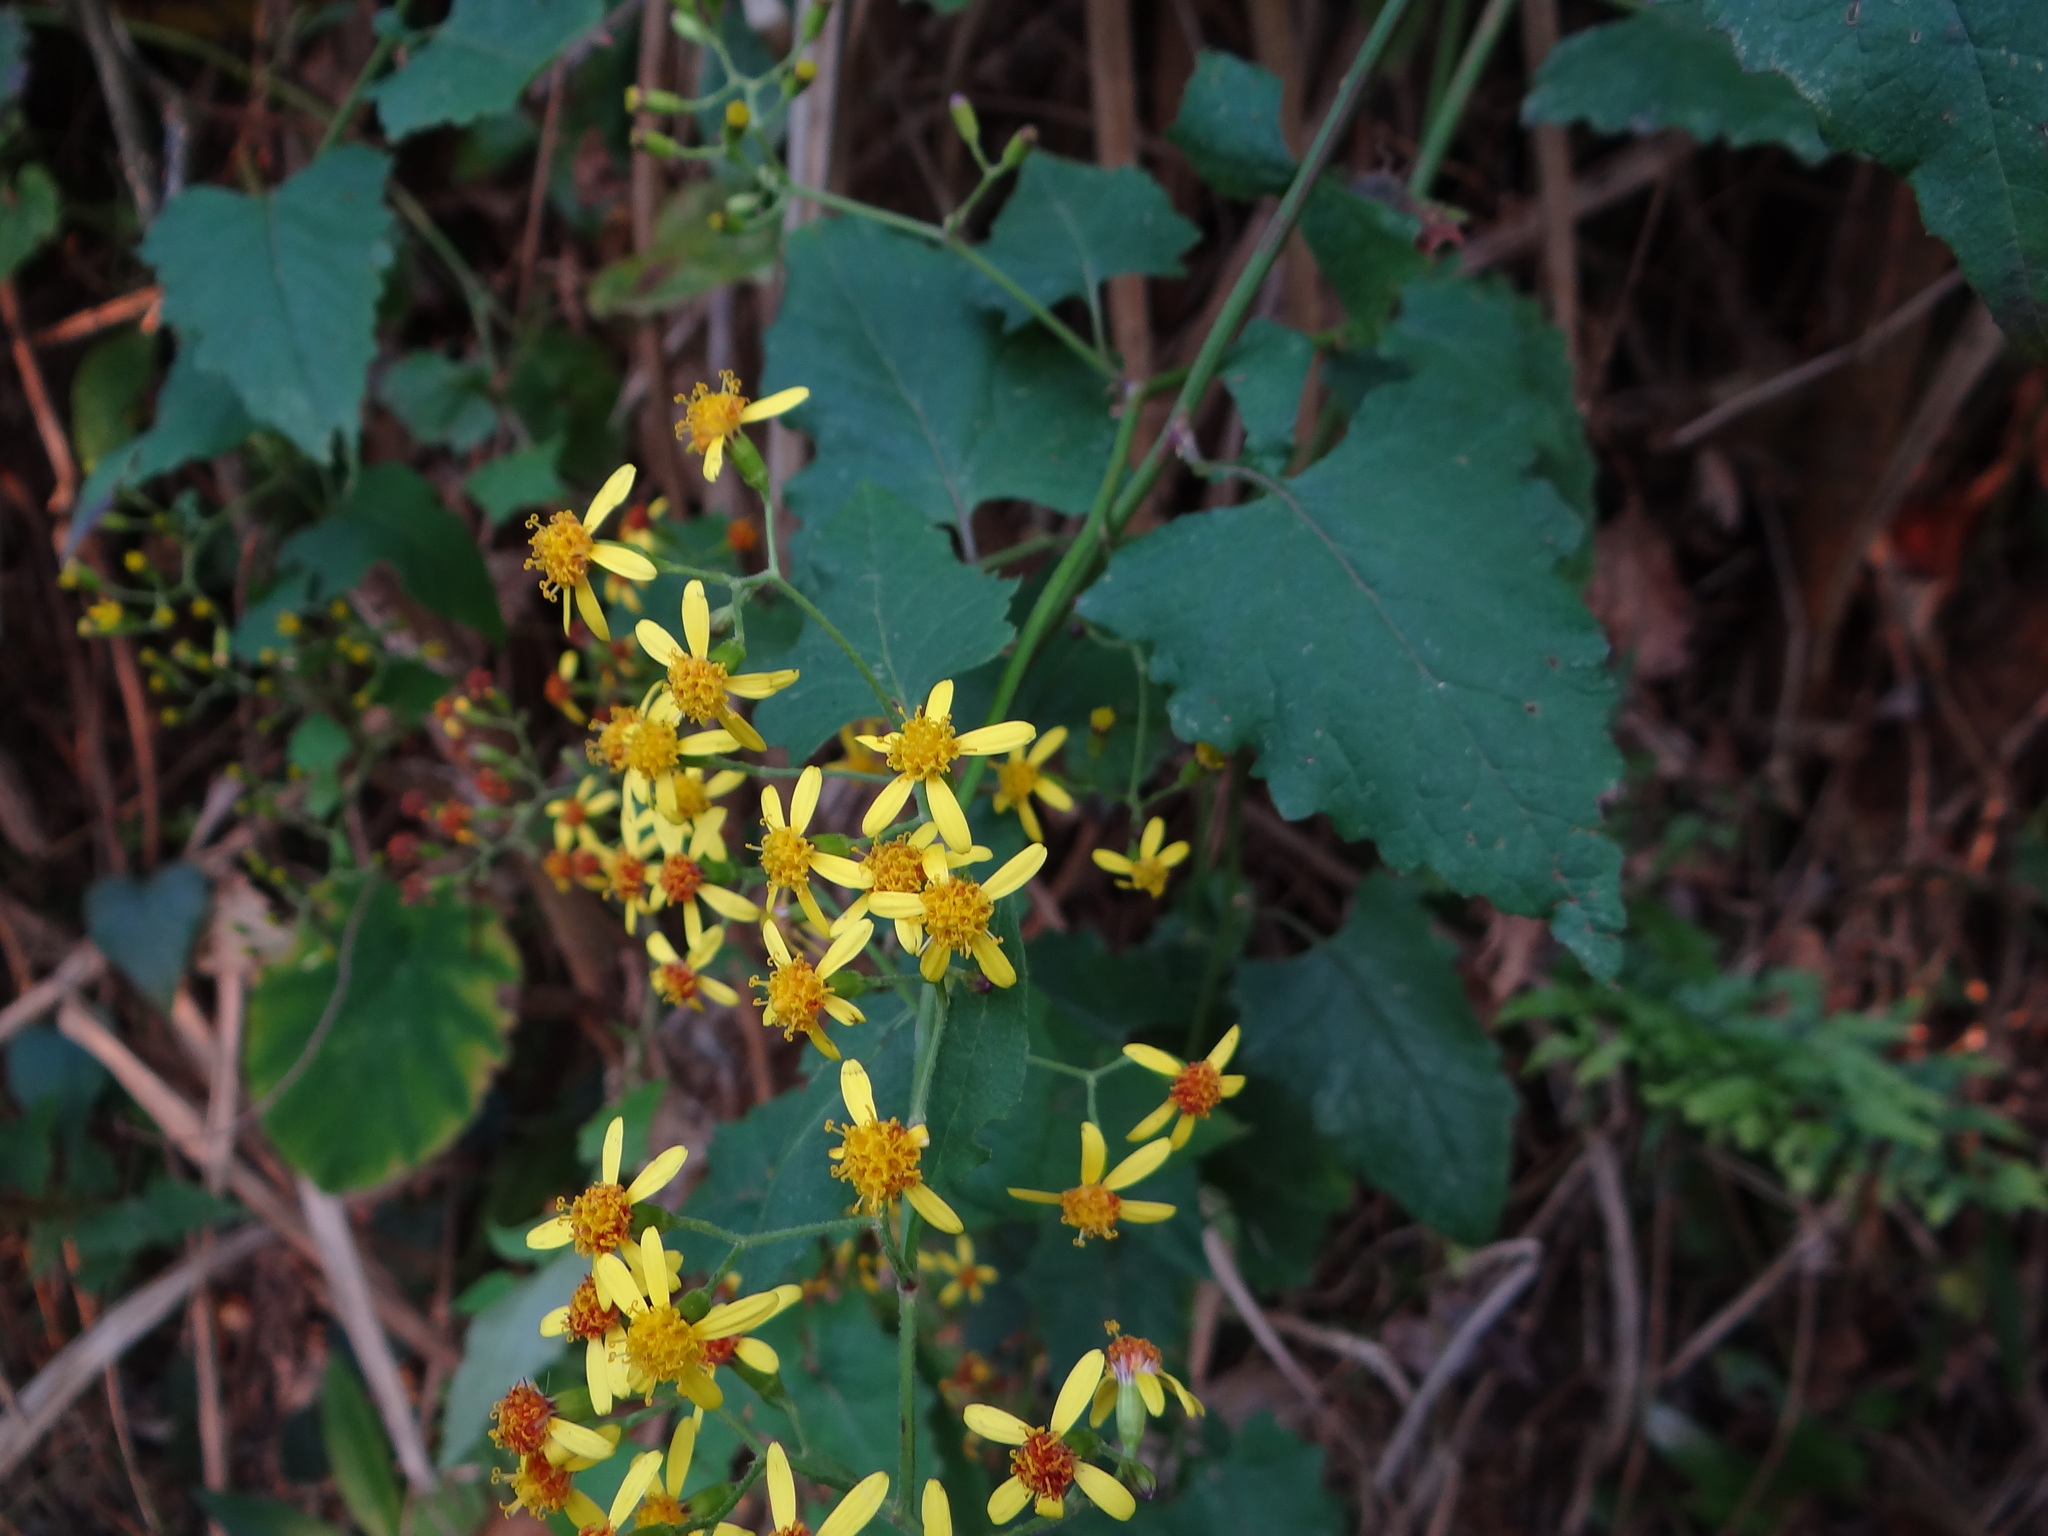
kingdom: Plantae
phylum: Tracheophyta
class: Magnoliopsida
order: Asterales
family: Asteraceae
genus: Senecio
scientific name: Senecio scandens
